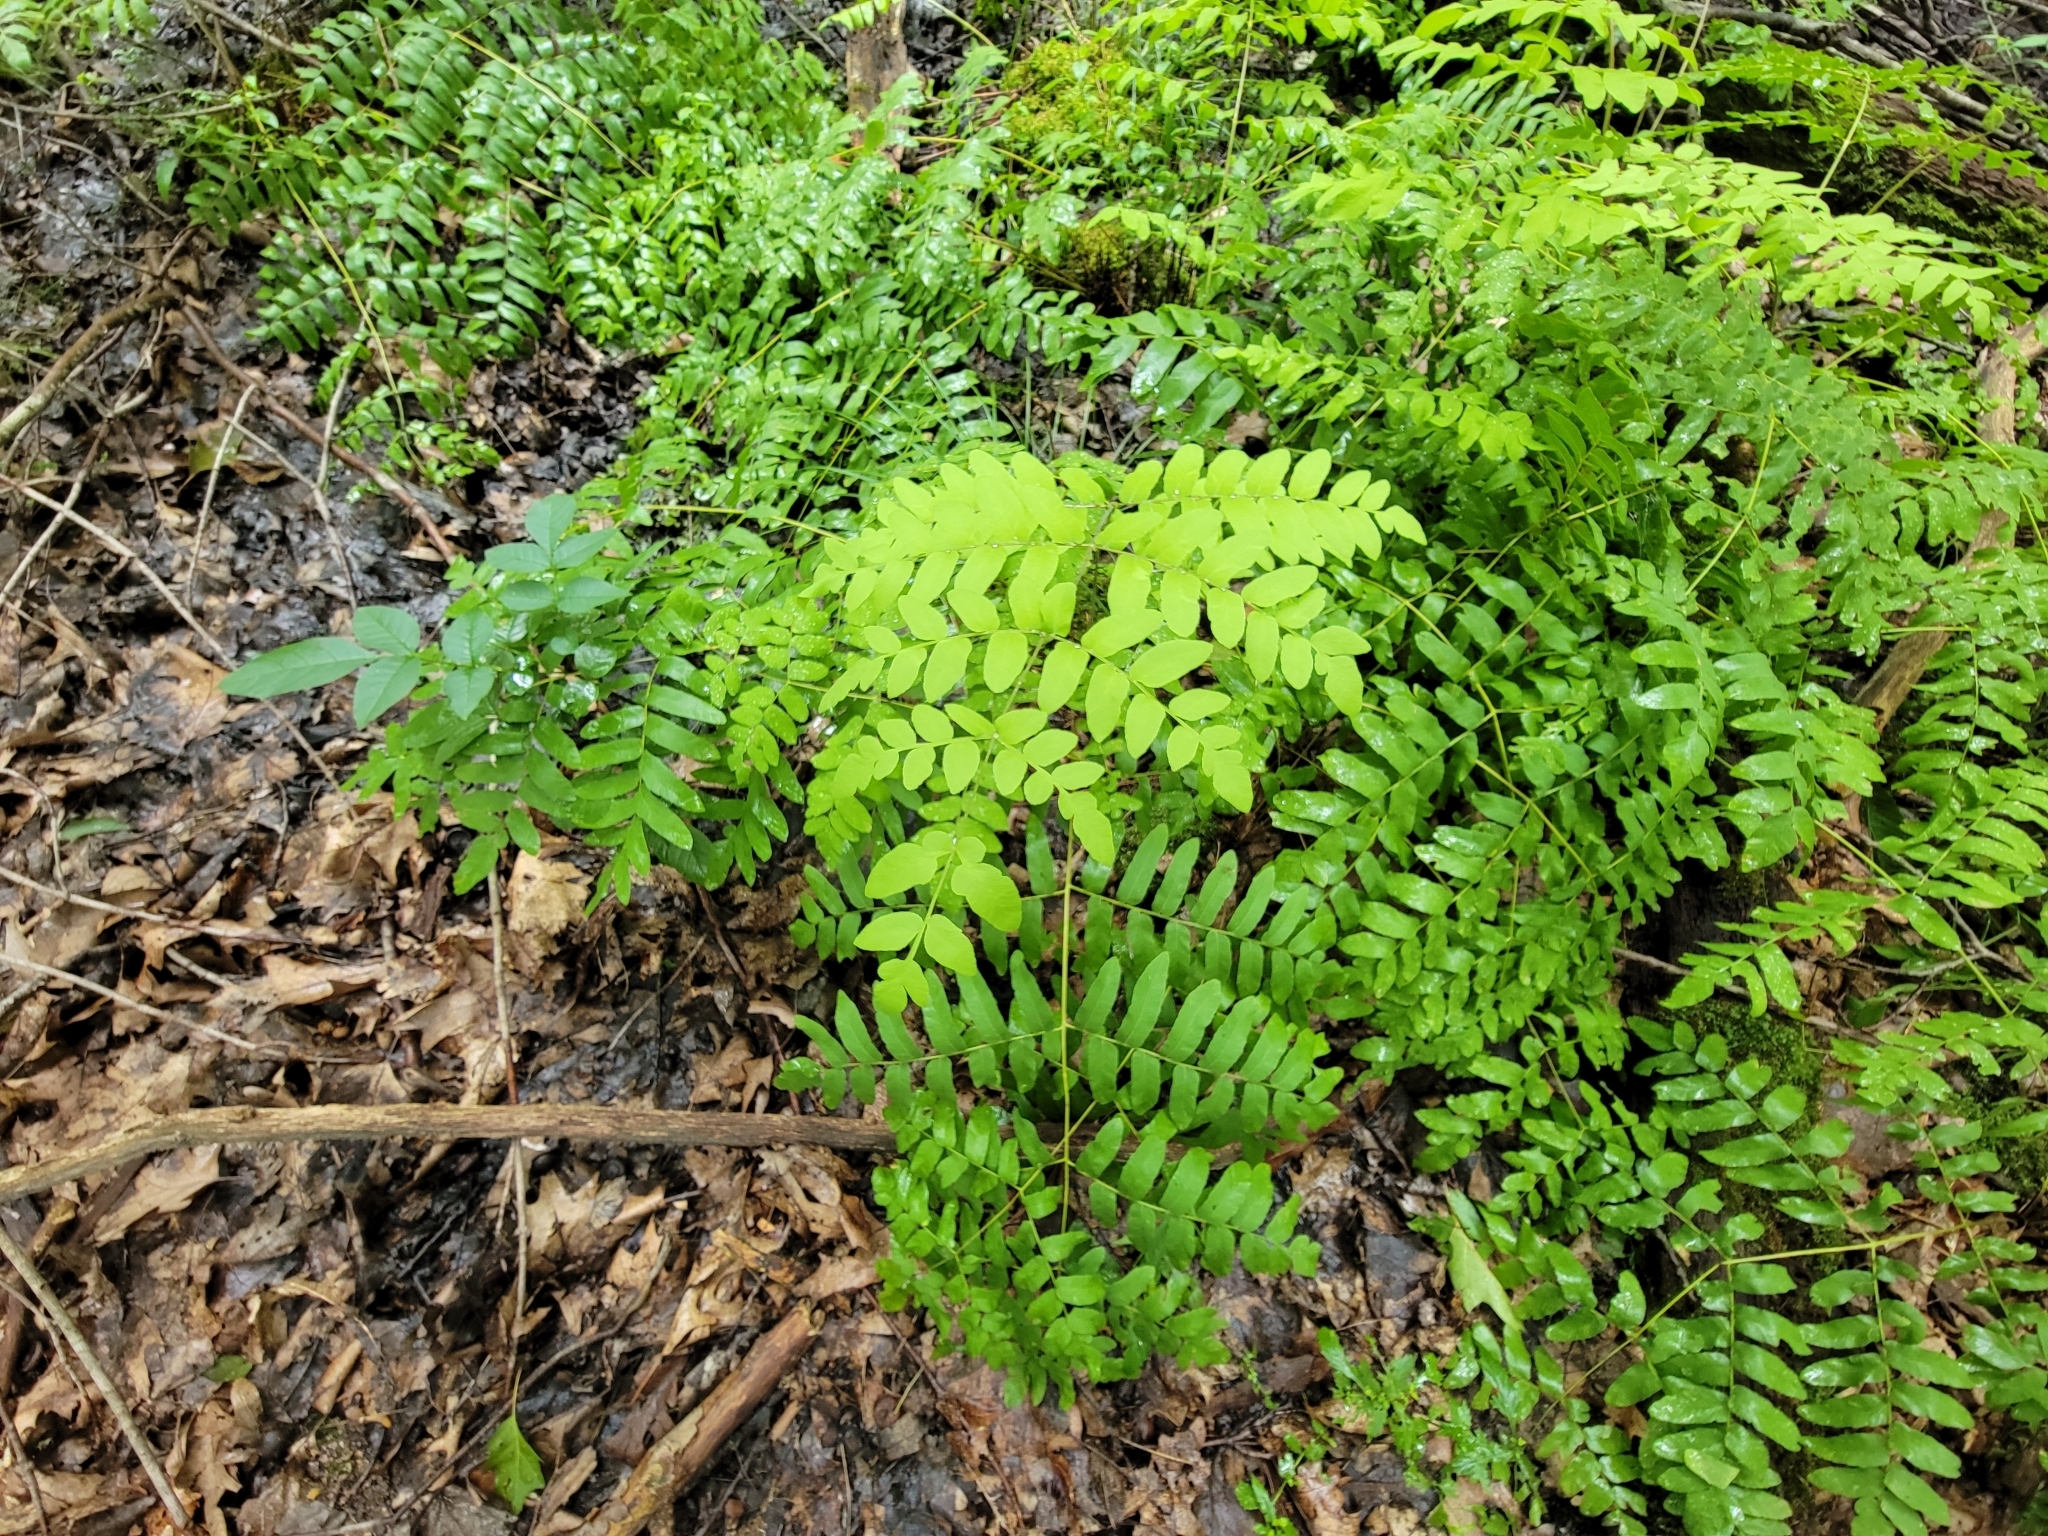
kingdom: Plantae
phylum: Tracheophyta
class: Polypodiopsida
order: Osmundales
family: Osmundaceae
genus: Osmunda
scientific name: Osmunda spectabilis
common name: American royal fern
